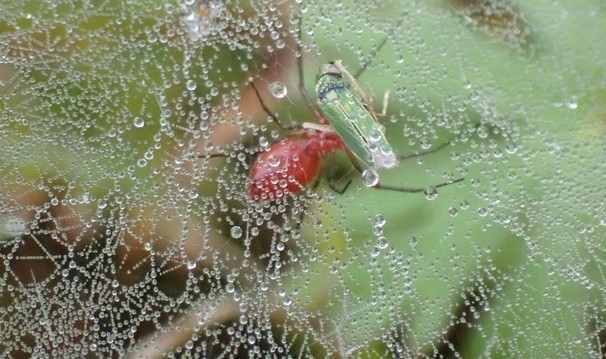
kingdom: Animalia
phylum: Arthropoda
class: Arachnida
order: Araneae
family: Linyphiidae
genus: Florinda
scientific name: Florinda coccinea
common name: Black-tailed red sheetweaver
